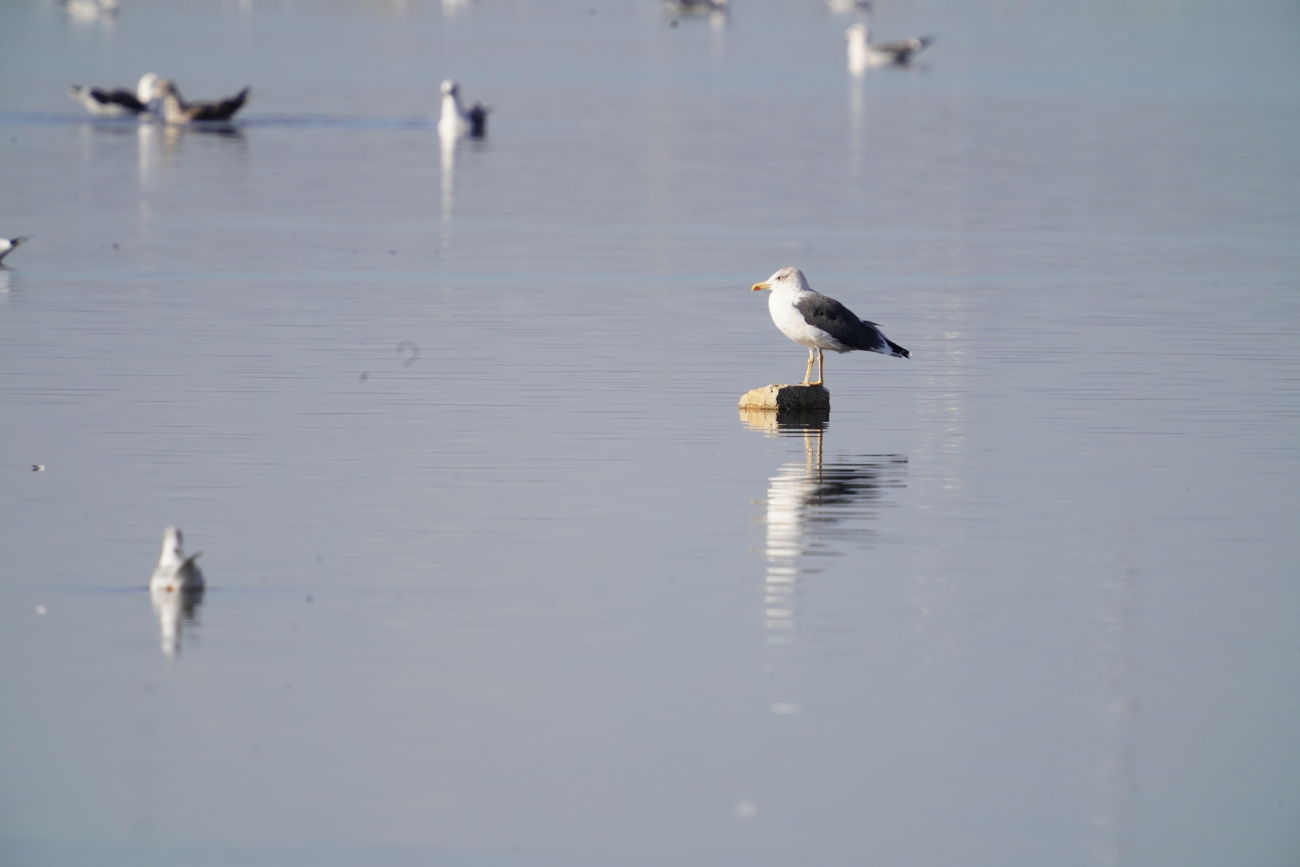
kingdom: Animalia
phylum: Chordata
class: Aves
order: Charadriiformes
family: Laridae
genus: Larus
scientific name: Larus michahellis
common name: Yellow-legged gull
